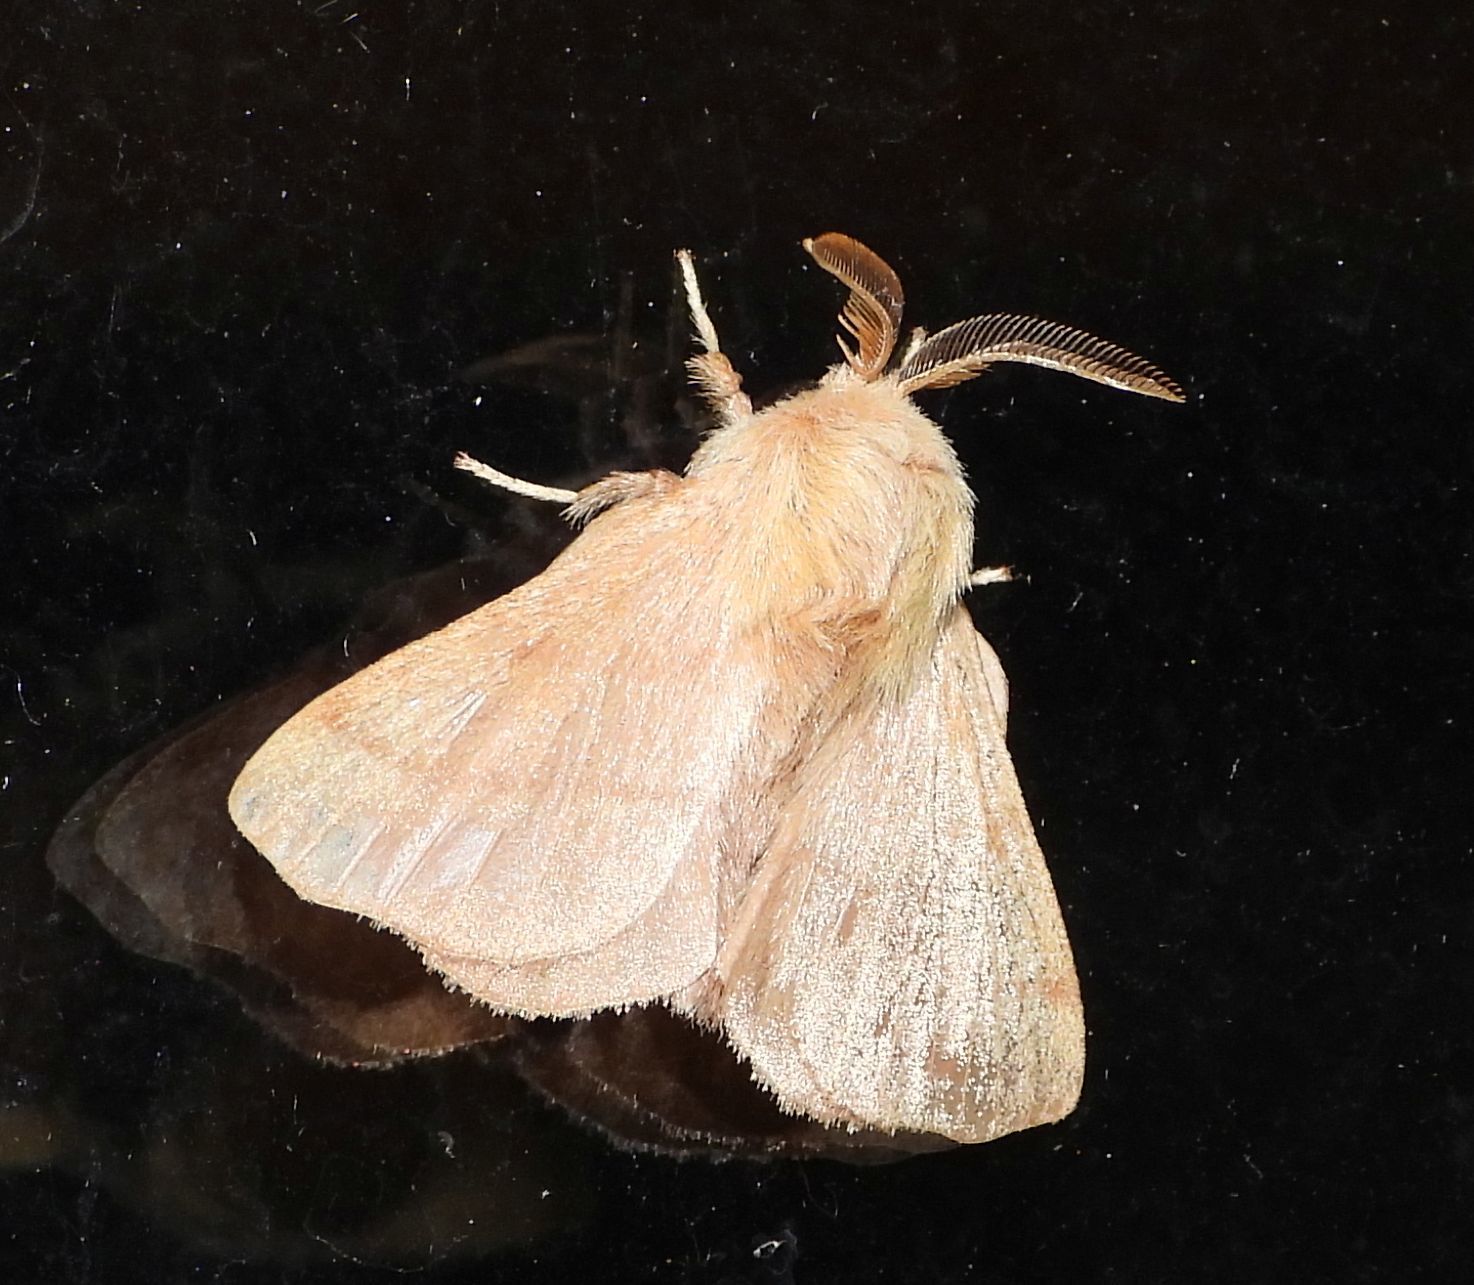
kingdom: Animalia
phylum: Arthropoda
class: Insecta
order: Lepidoptera
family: Lasiocampidae
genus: Malacosoma
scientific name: Malacosoma disstria
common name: Forest tent caterpillar
